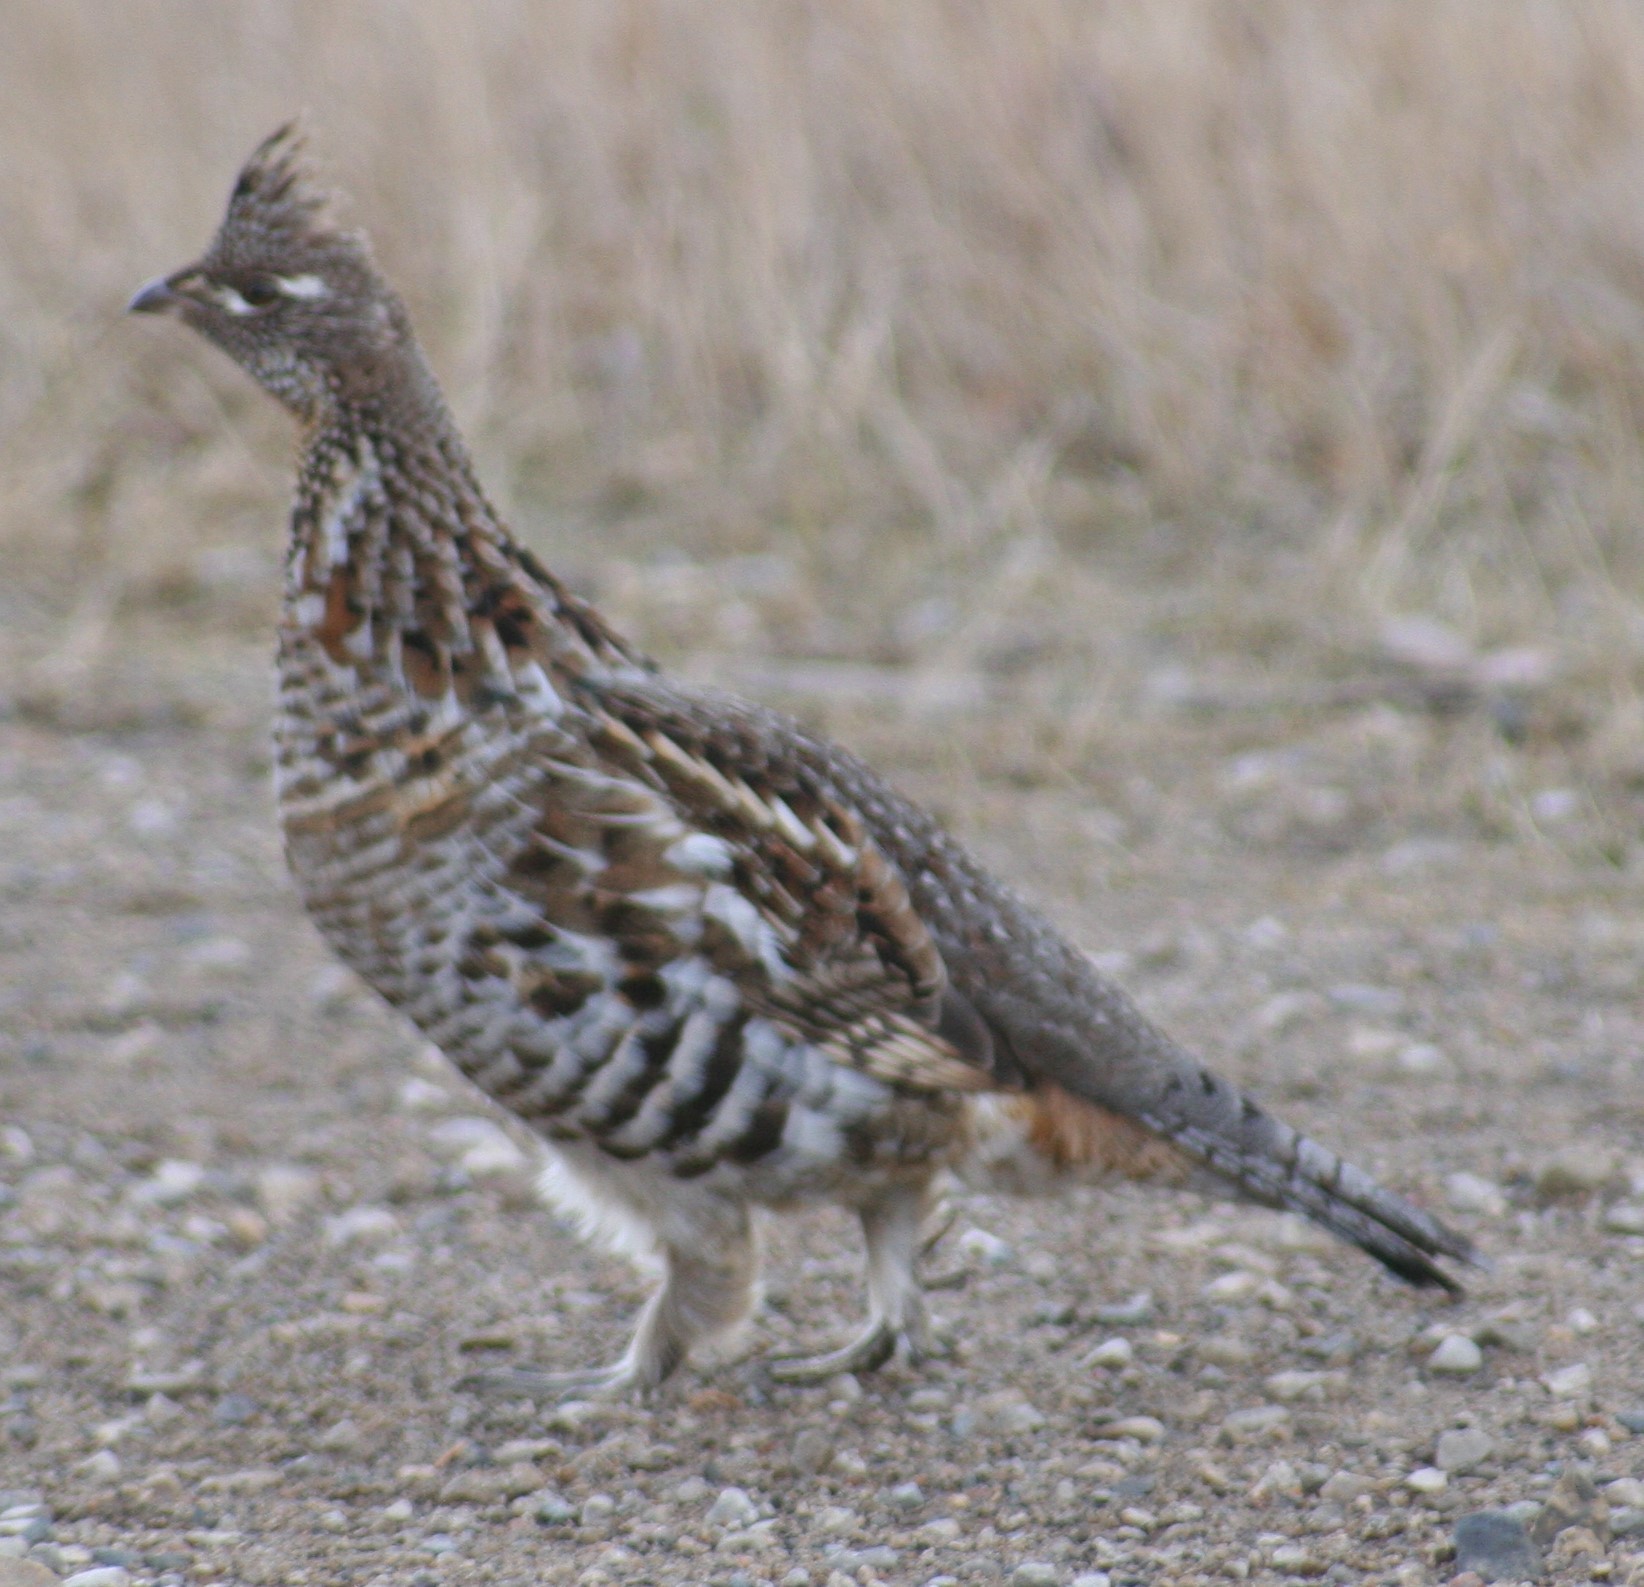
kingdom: Animalia
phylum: Chordata
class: Aves
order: Galliformes
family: Phasianidae
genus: Bonasa
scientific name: Bonasa umbellus
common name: Ruffed grouse
